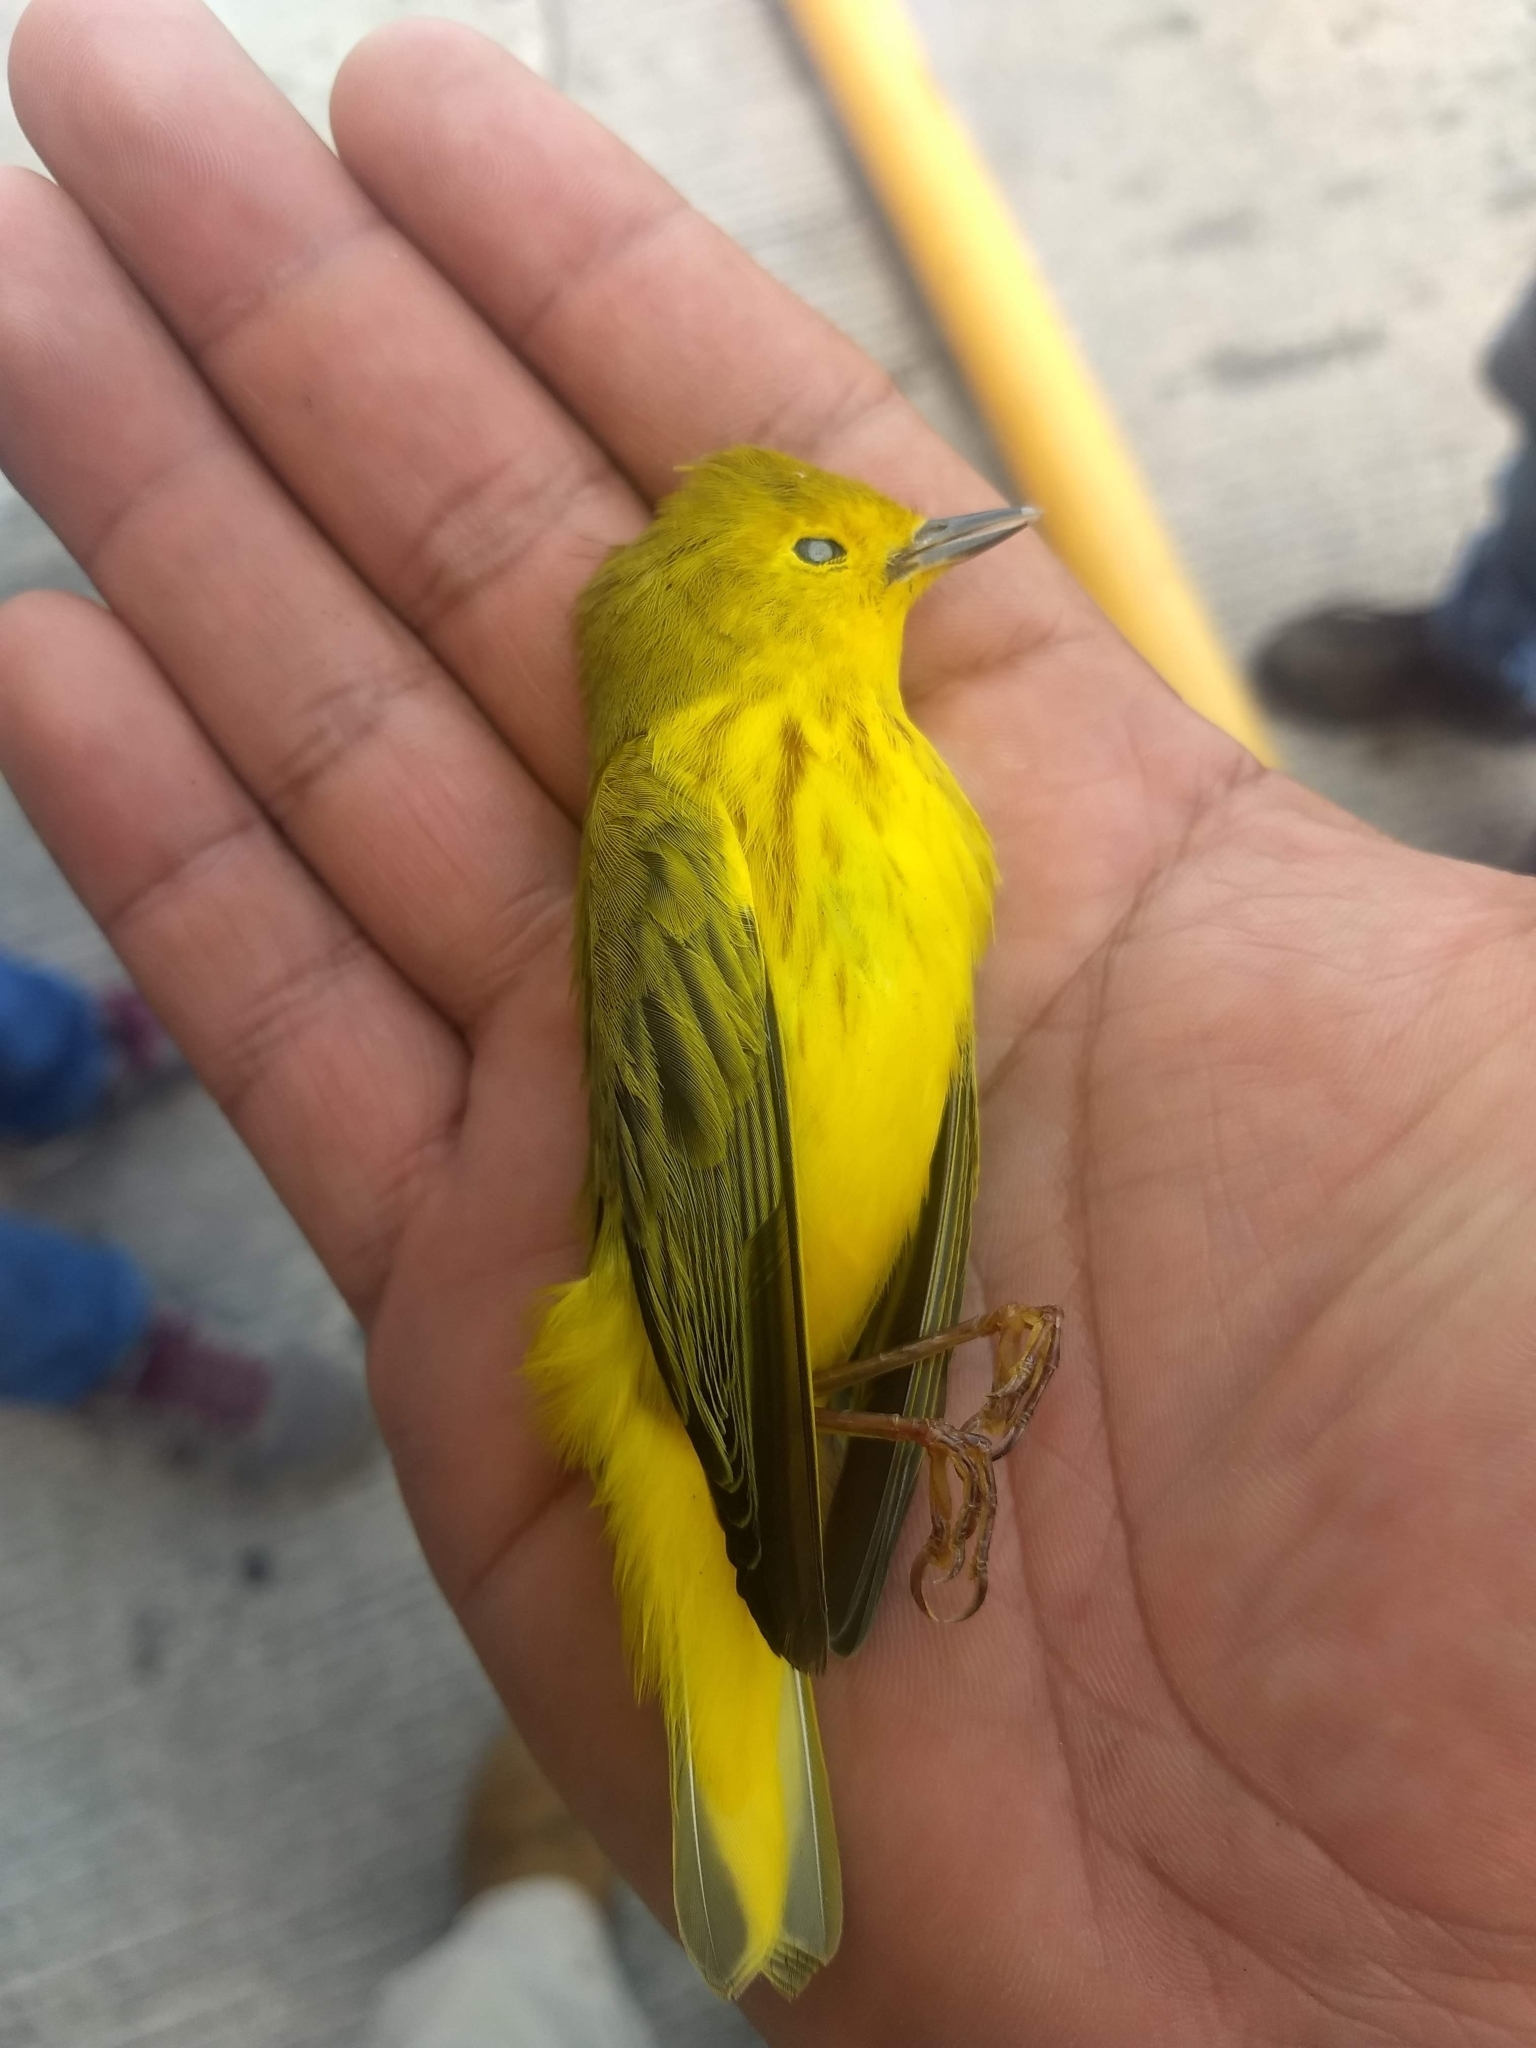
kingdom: Animalia
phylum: Chordata
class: Aves
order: Passeriformes
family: Parulidae
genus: Setophaga
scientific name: Setophaga petechia
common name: Yellow warbler
